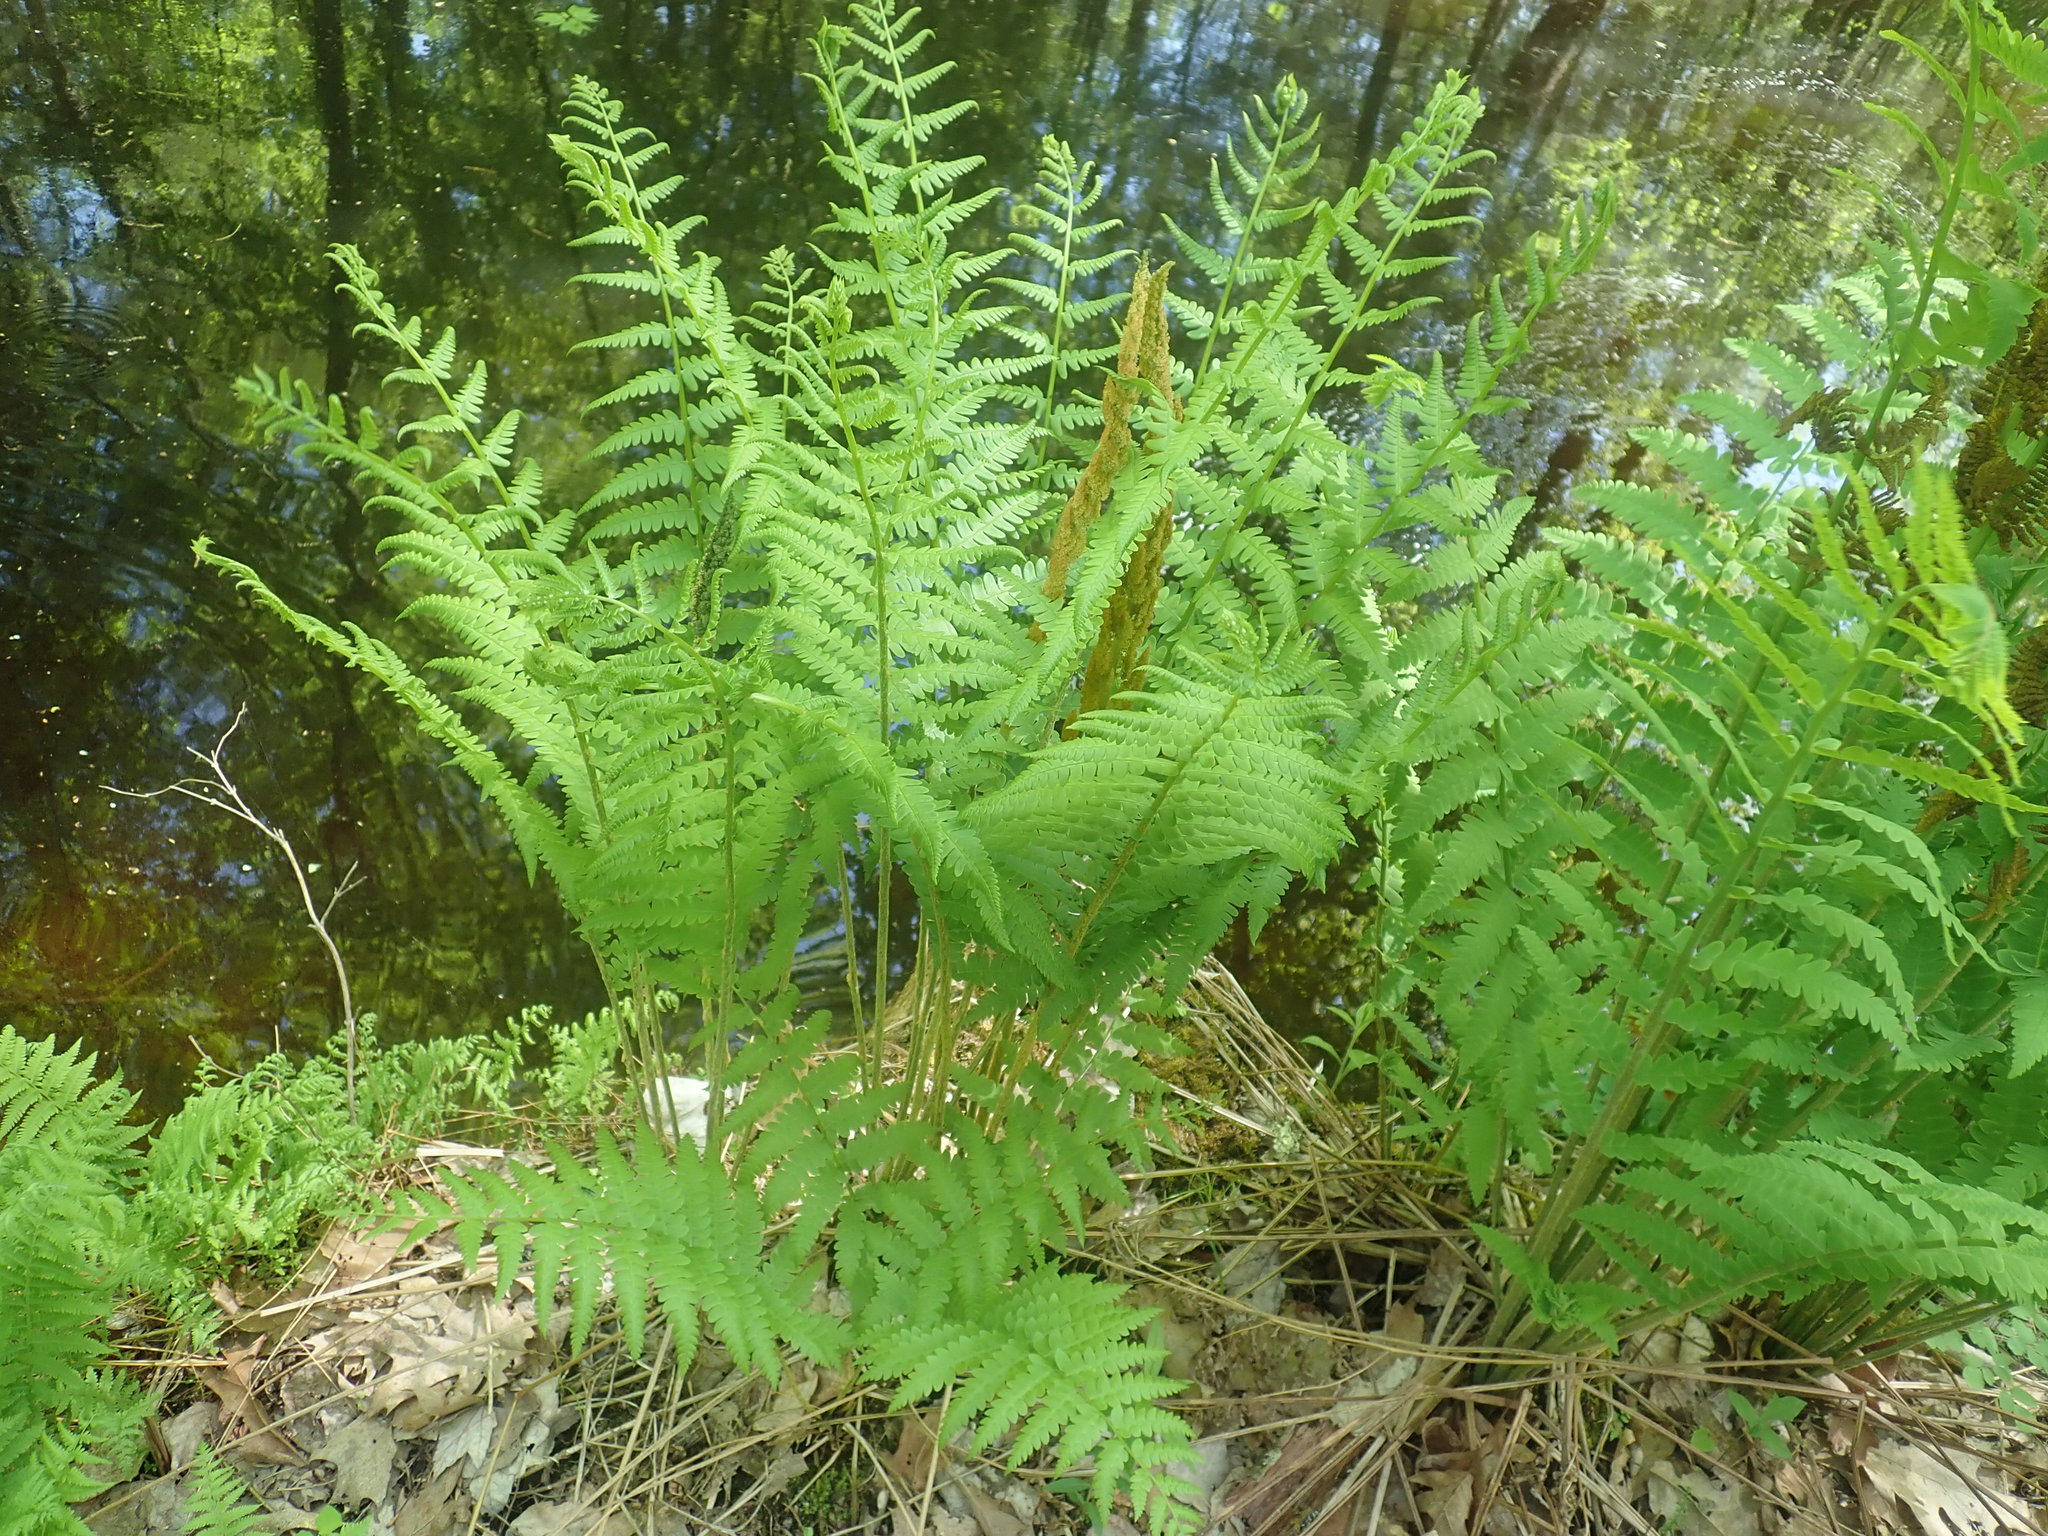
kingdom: Plantae
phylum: Tracheophyta
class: Polypodiopsida
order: Osmundales
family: Osmundaceae
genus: Osmundastrum
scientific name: Osmundastrum cinnamomeum
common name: Cinnamon fern
